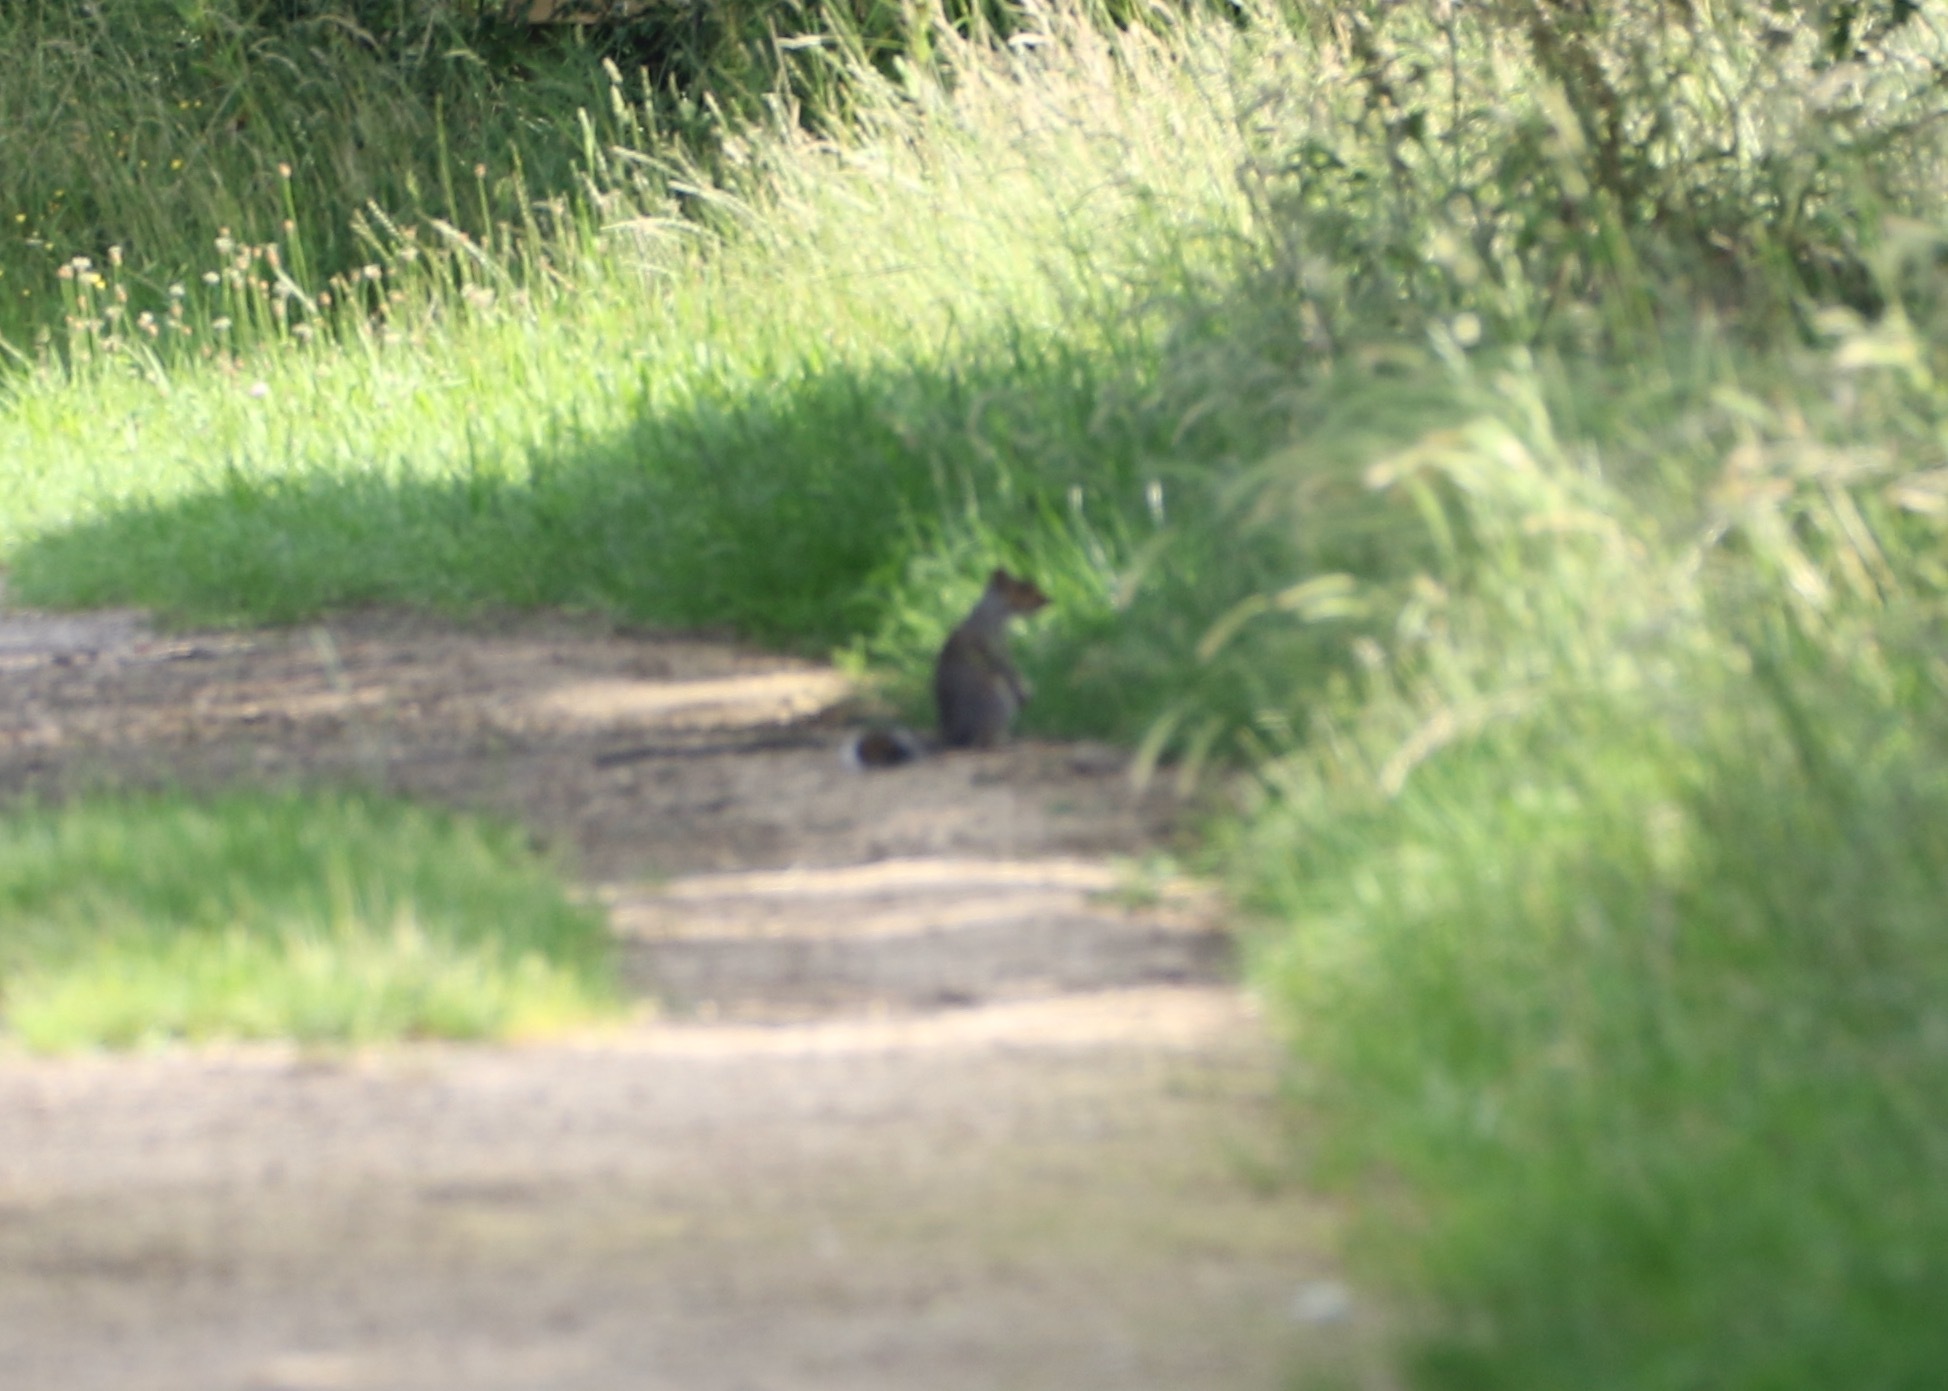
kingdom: Animalia
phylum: Chordata
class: Mammalia
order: Rodentia
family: Sciuridae
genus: Sciurus
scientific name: Sciurus carolinensis
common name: Eastern gray squirrel
